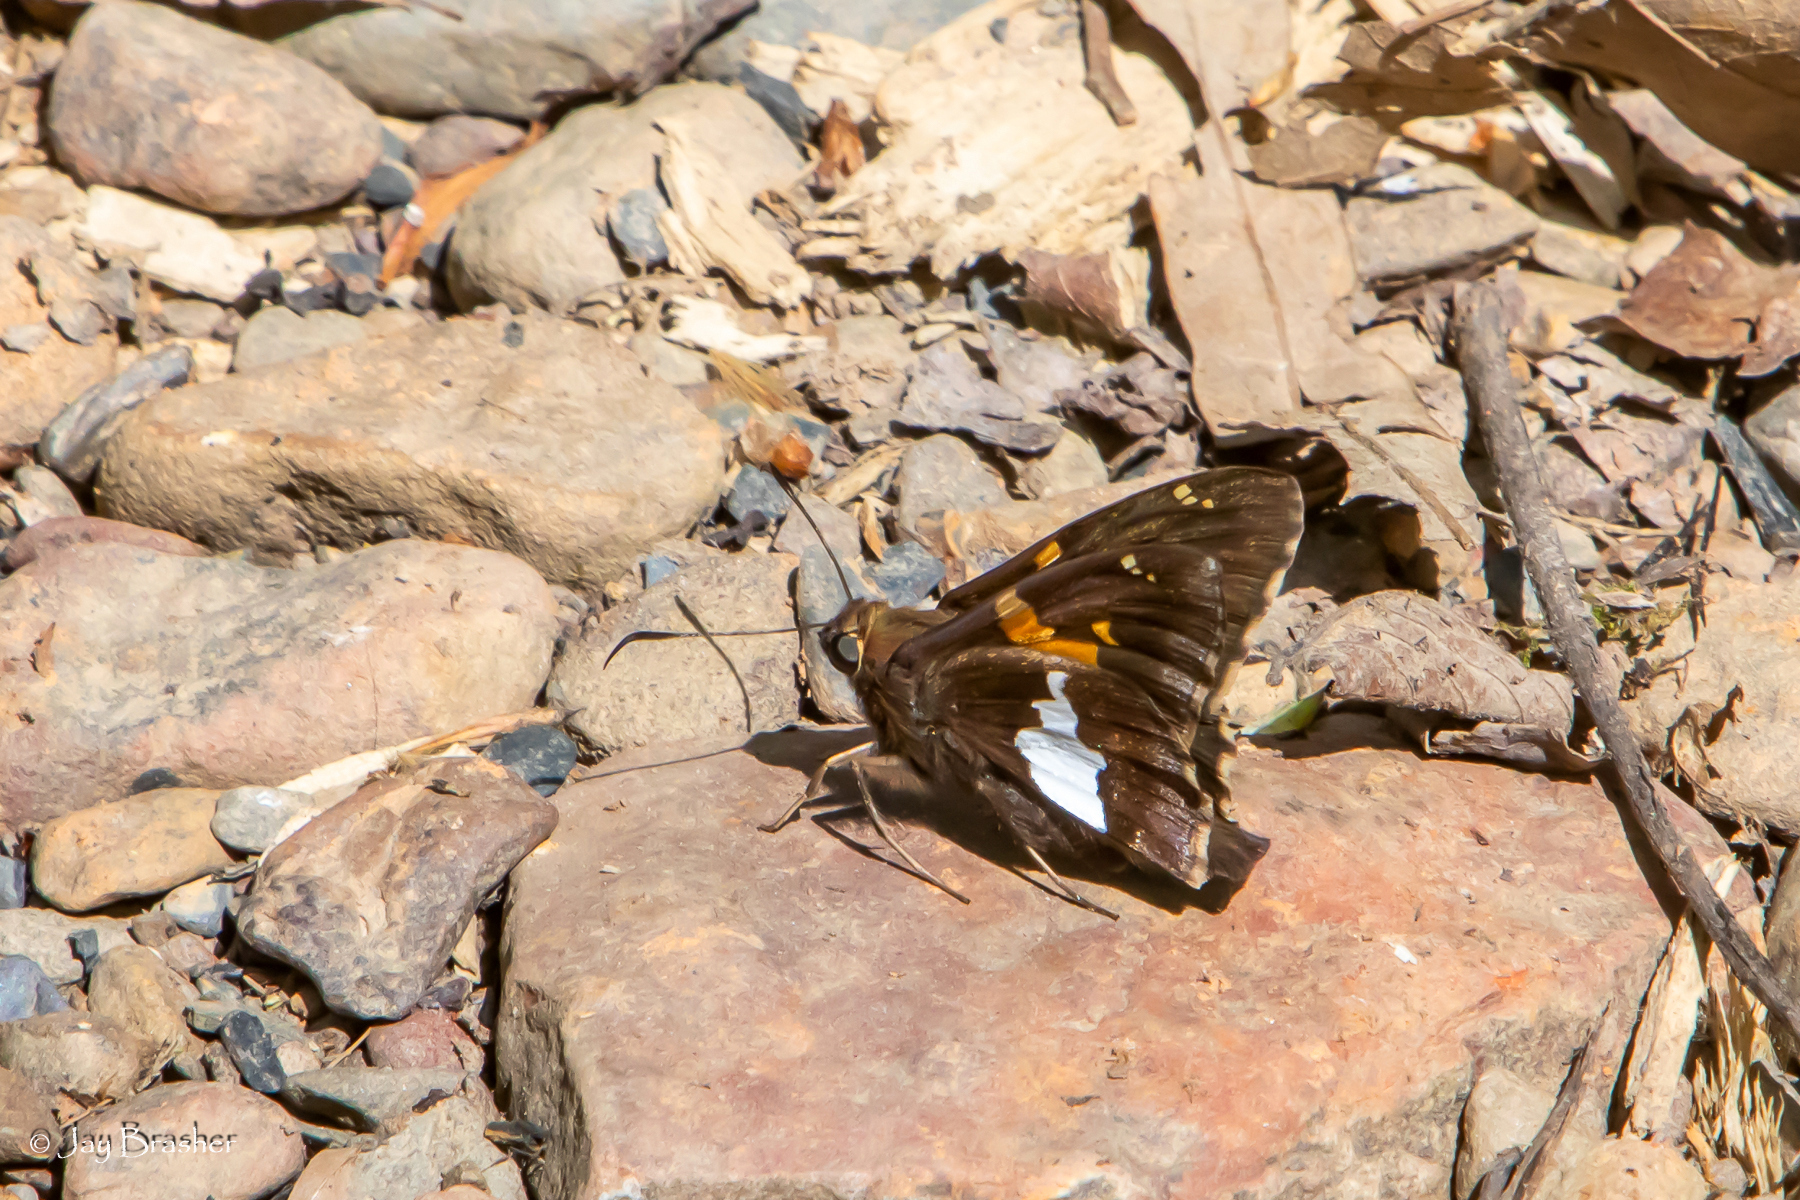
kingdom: Animalia
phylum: Arthropoda
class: Insecta
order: Lepidoptera
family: Hesperiidae
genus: Epargyreus
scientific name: Epargyreus clarus
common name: Silver-spotted skipper
